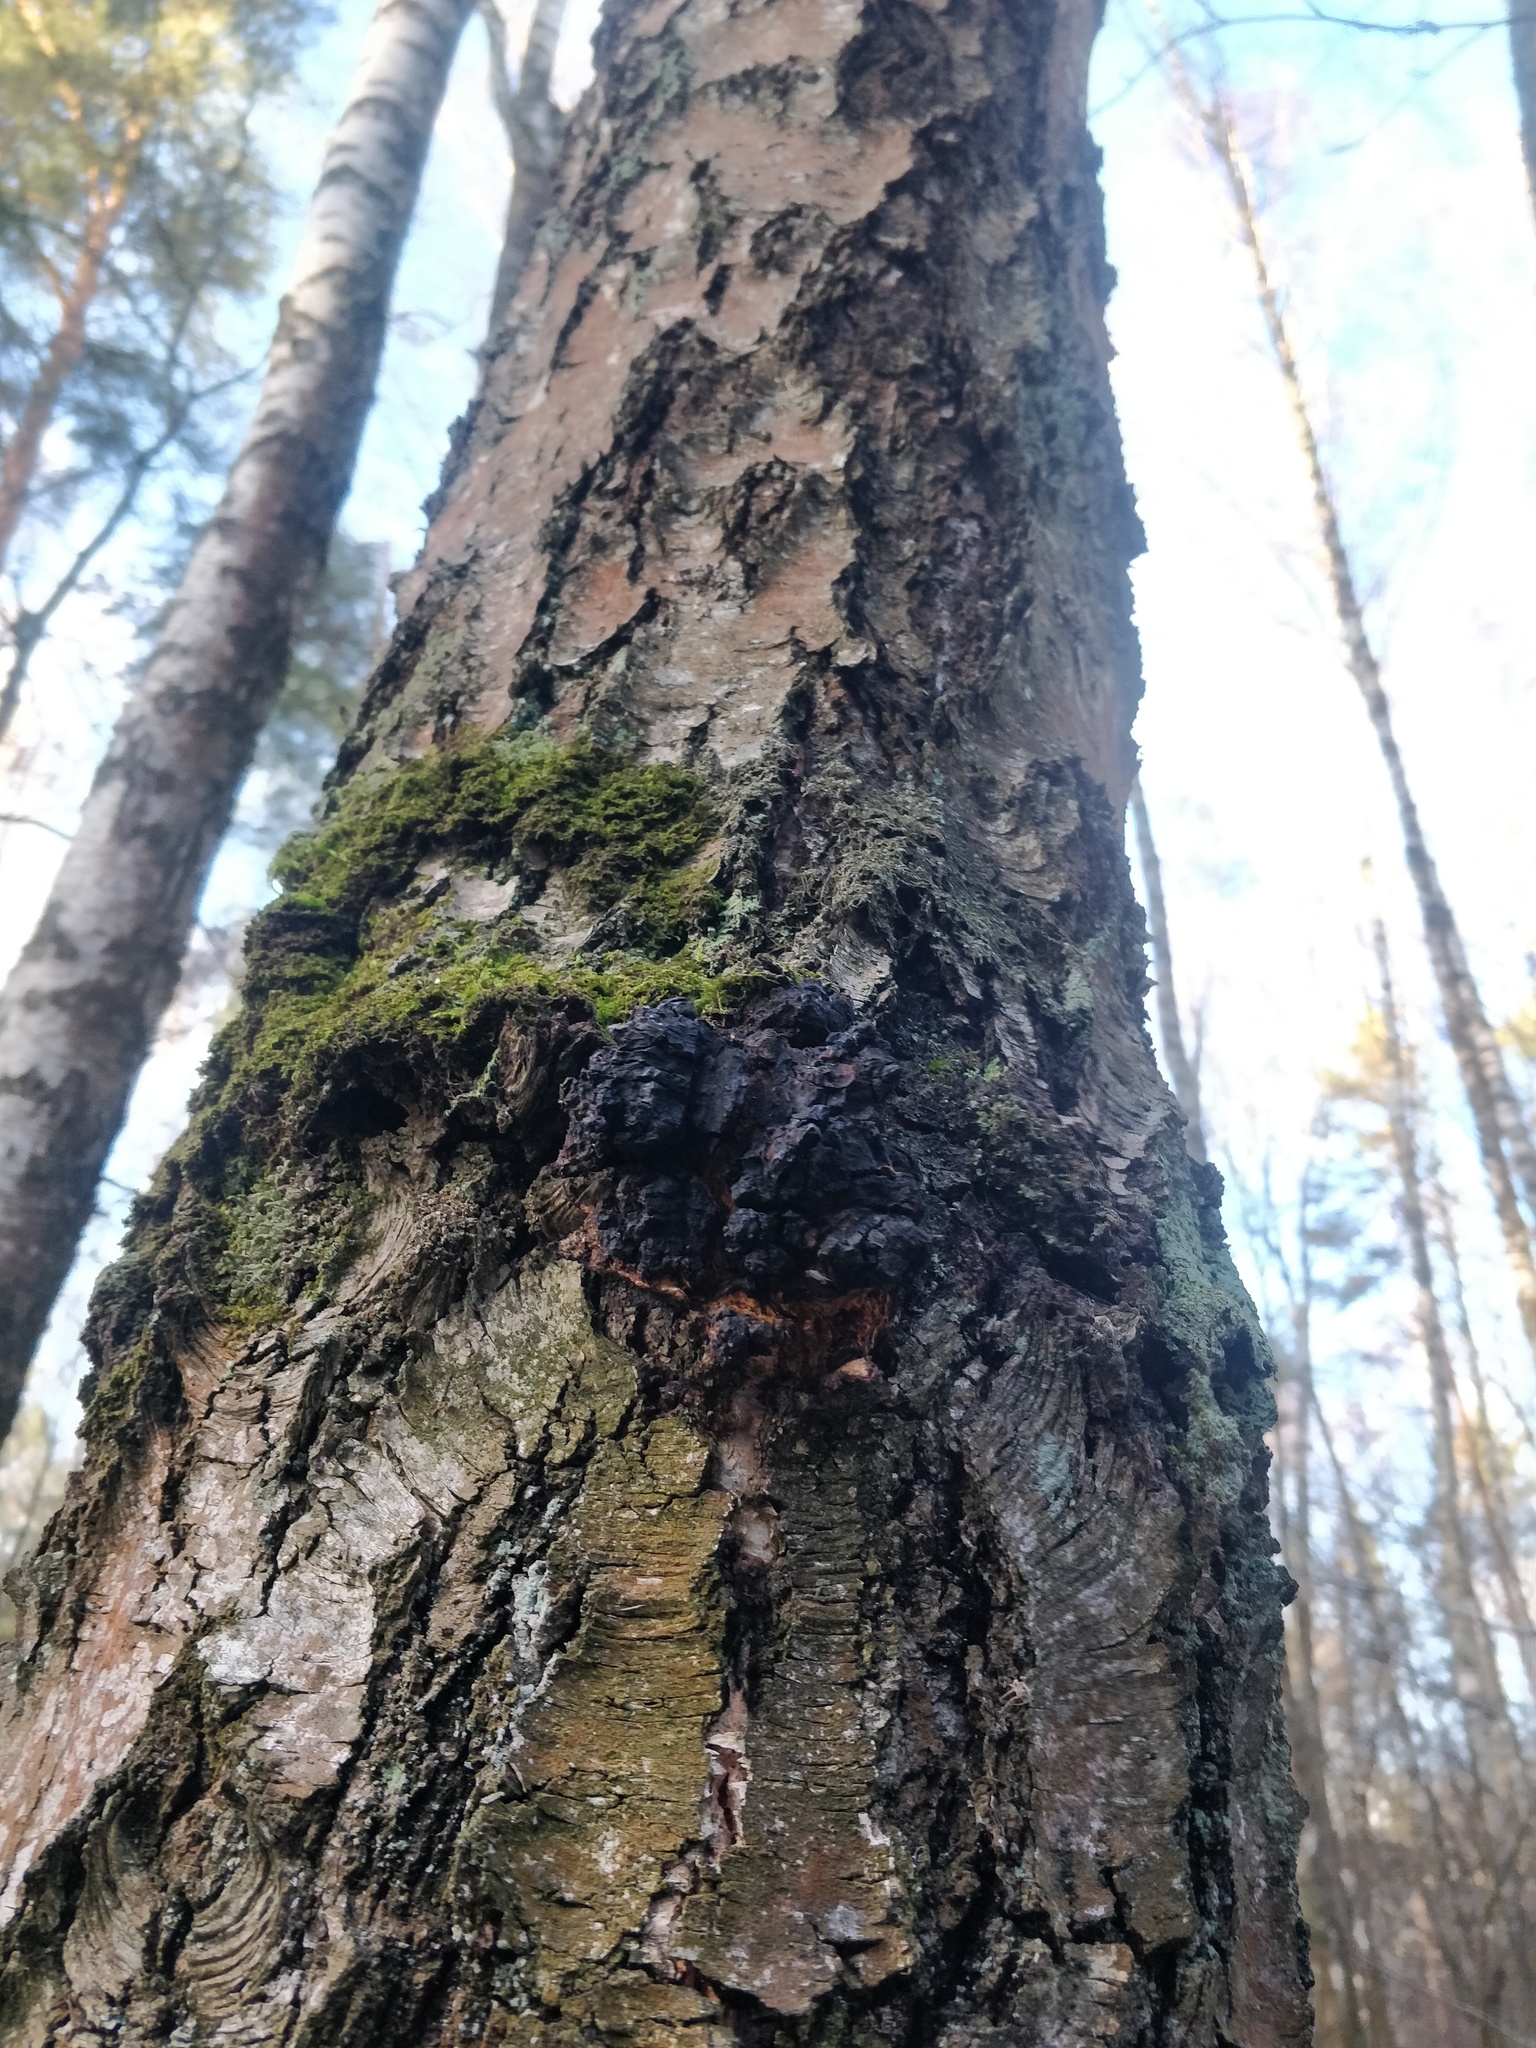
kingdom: Fungi
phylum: Basidiomycota
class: Agaricomycetes
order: Hymenochaetales
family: Hymenochaetaceae
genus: Inonotus
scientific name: Inonotus obliquus
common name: Chaga
